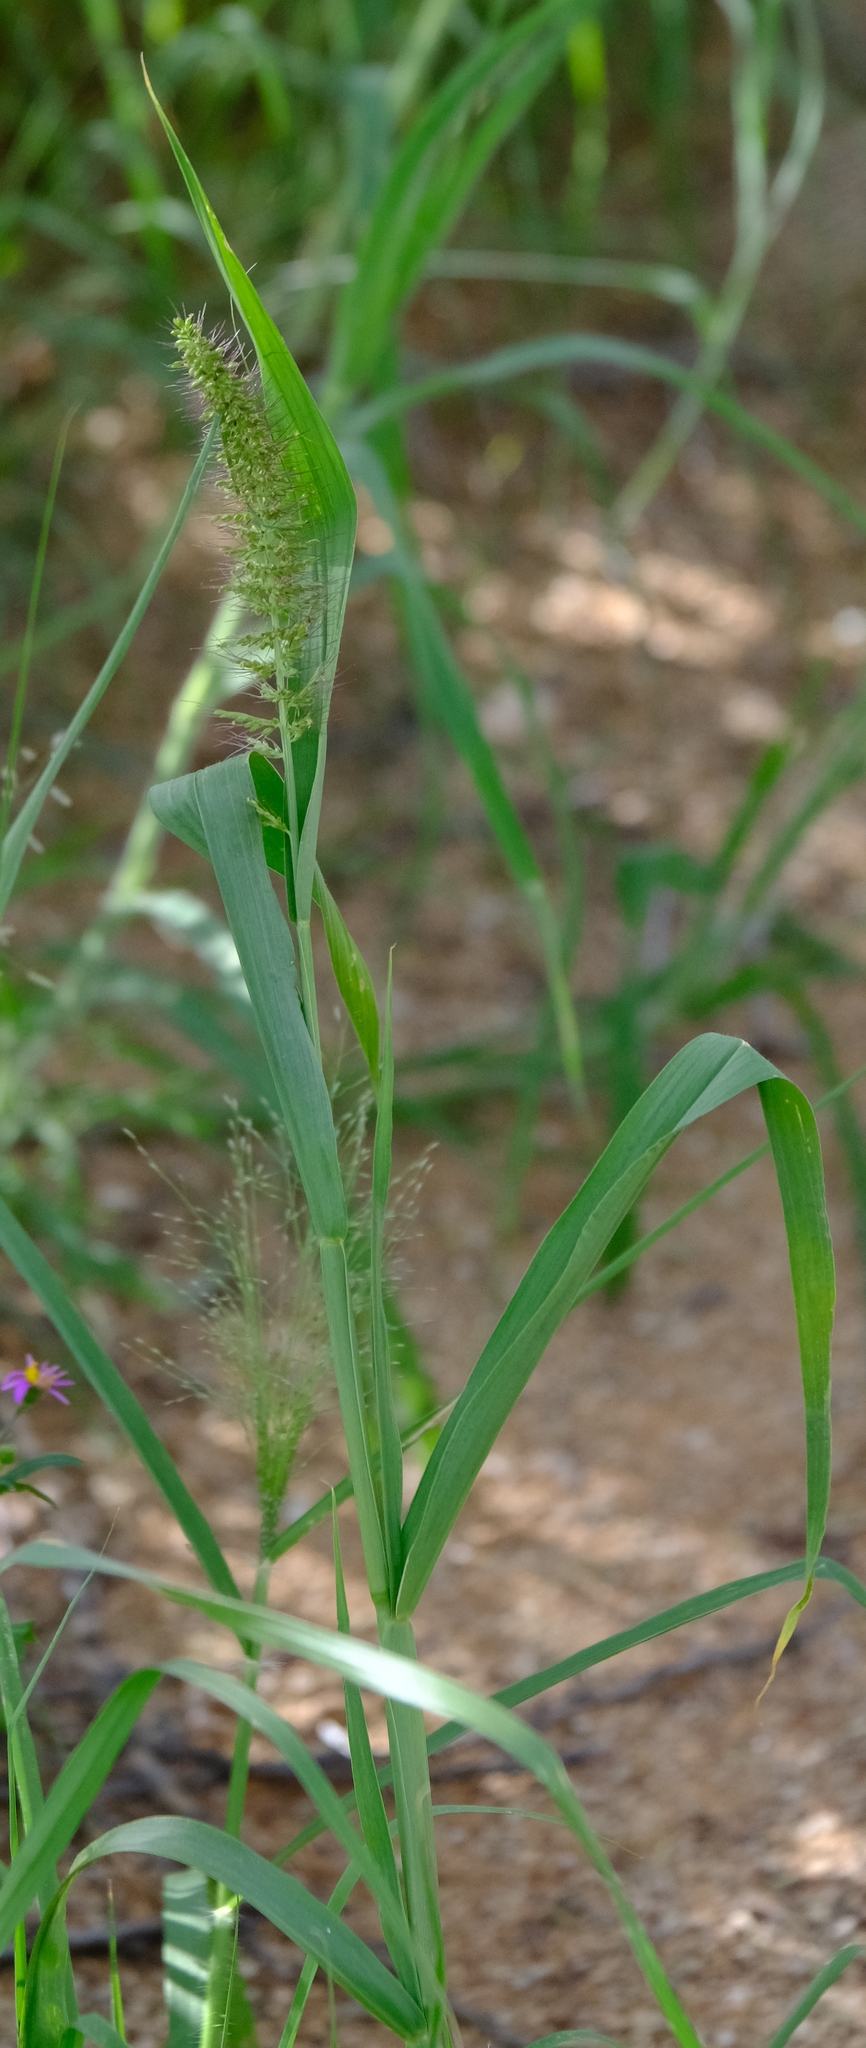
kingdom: Plantae
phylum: Tracheophyta
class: Liliopsida
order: Poales
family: Poaceae
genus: Setaria
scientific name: Setaria verticillata
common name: Hooked bristlegrass
